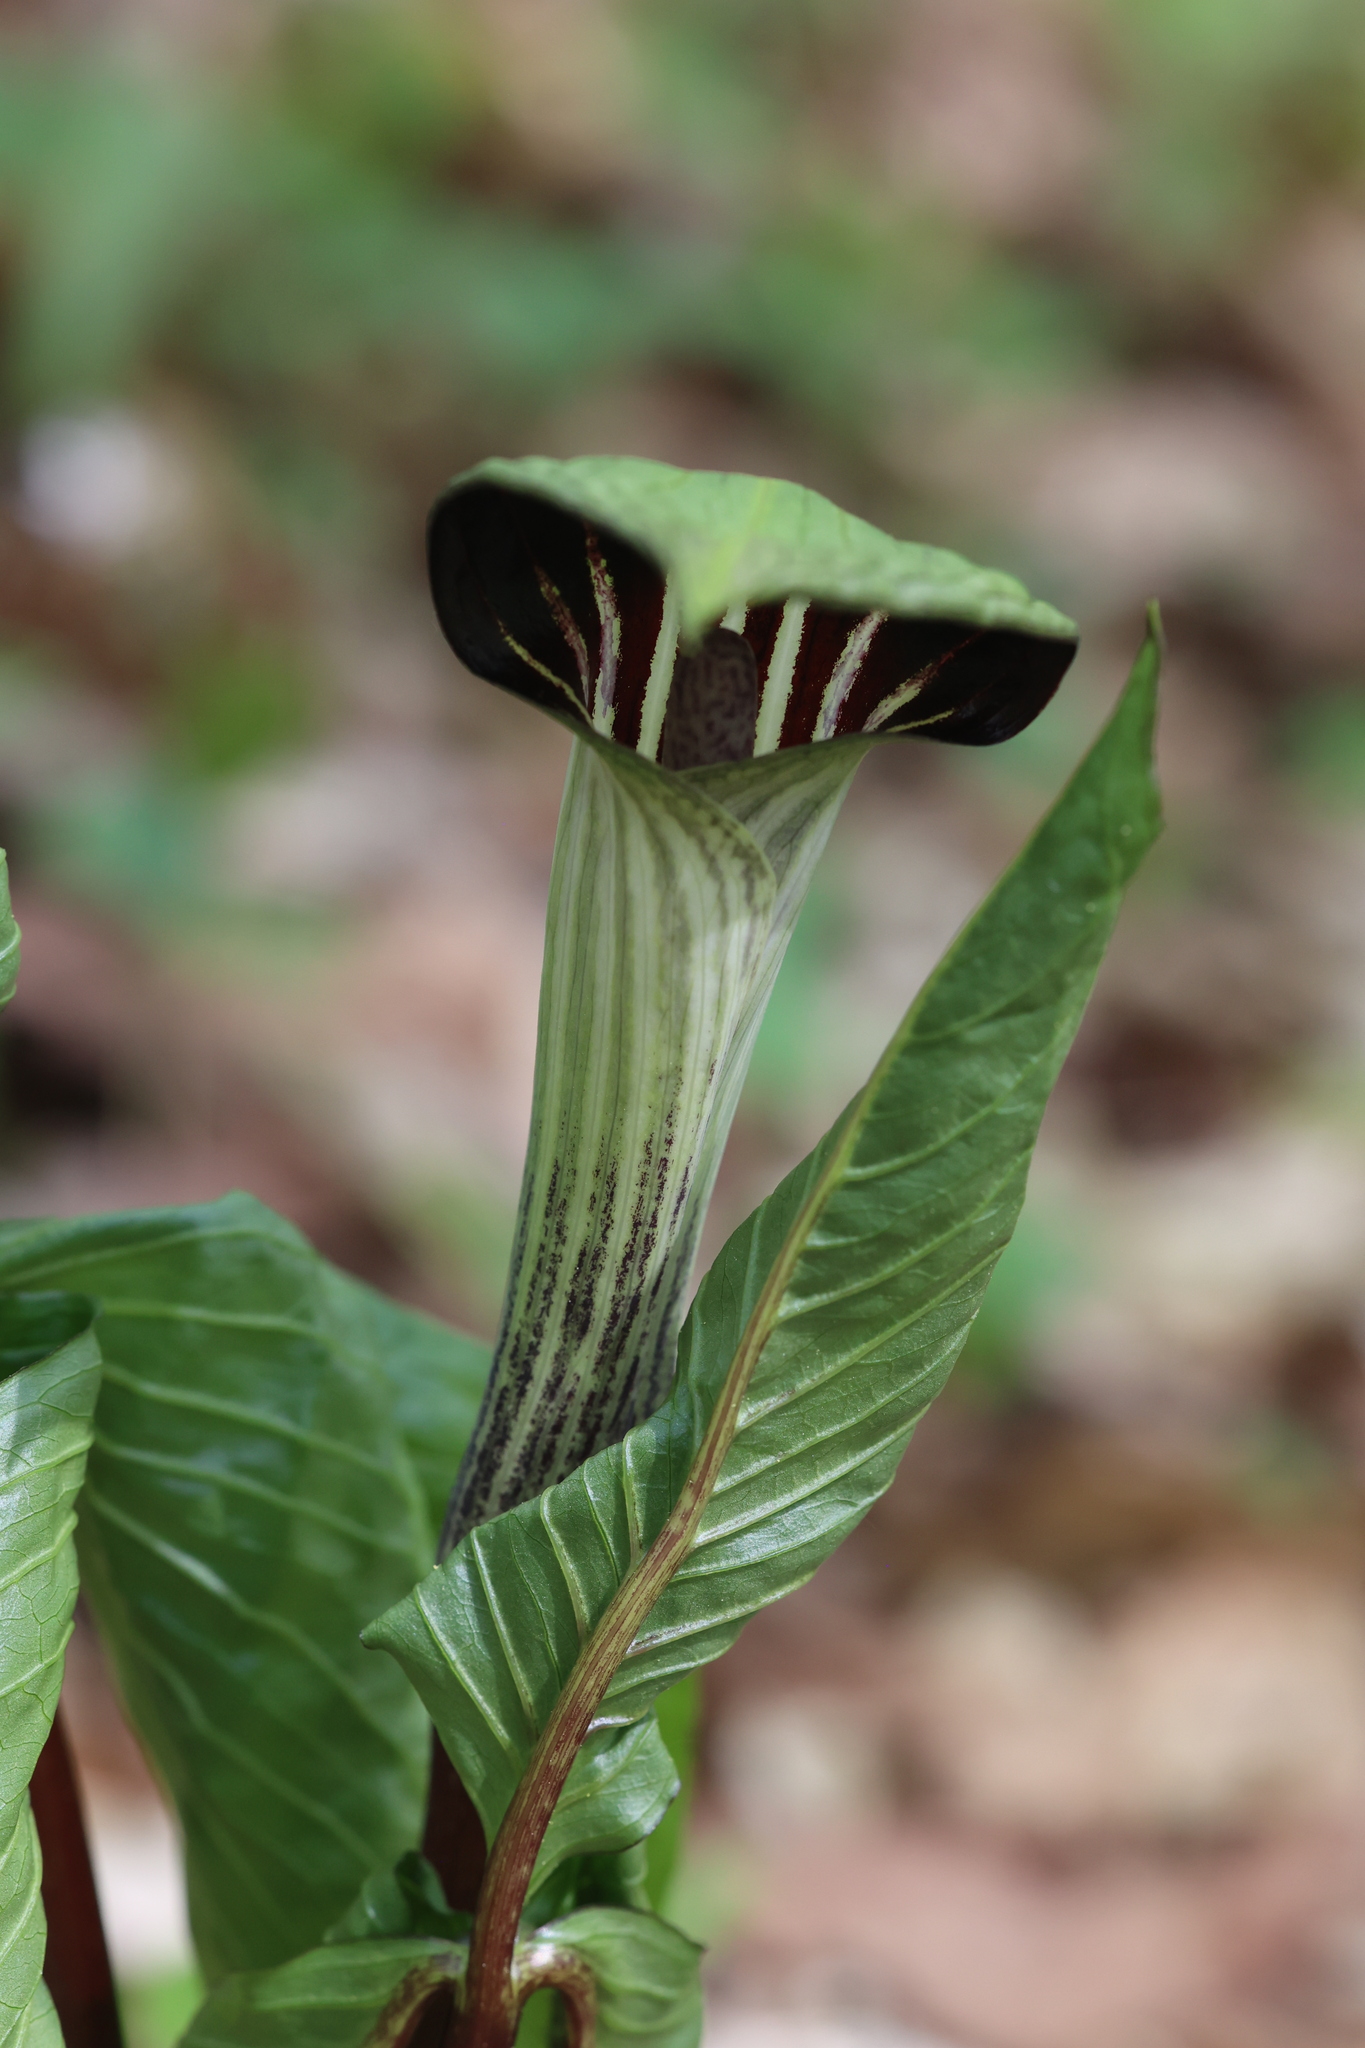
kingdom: Plantae
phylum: Tracheophyta
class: Liliopsida
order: Alismatales
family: Araceae
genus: Arisaema
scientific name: Arisaema triphyllum
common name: Jack-in-the-pulpit
